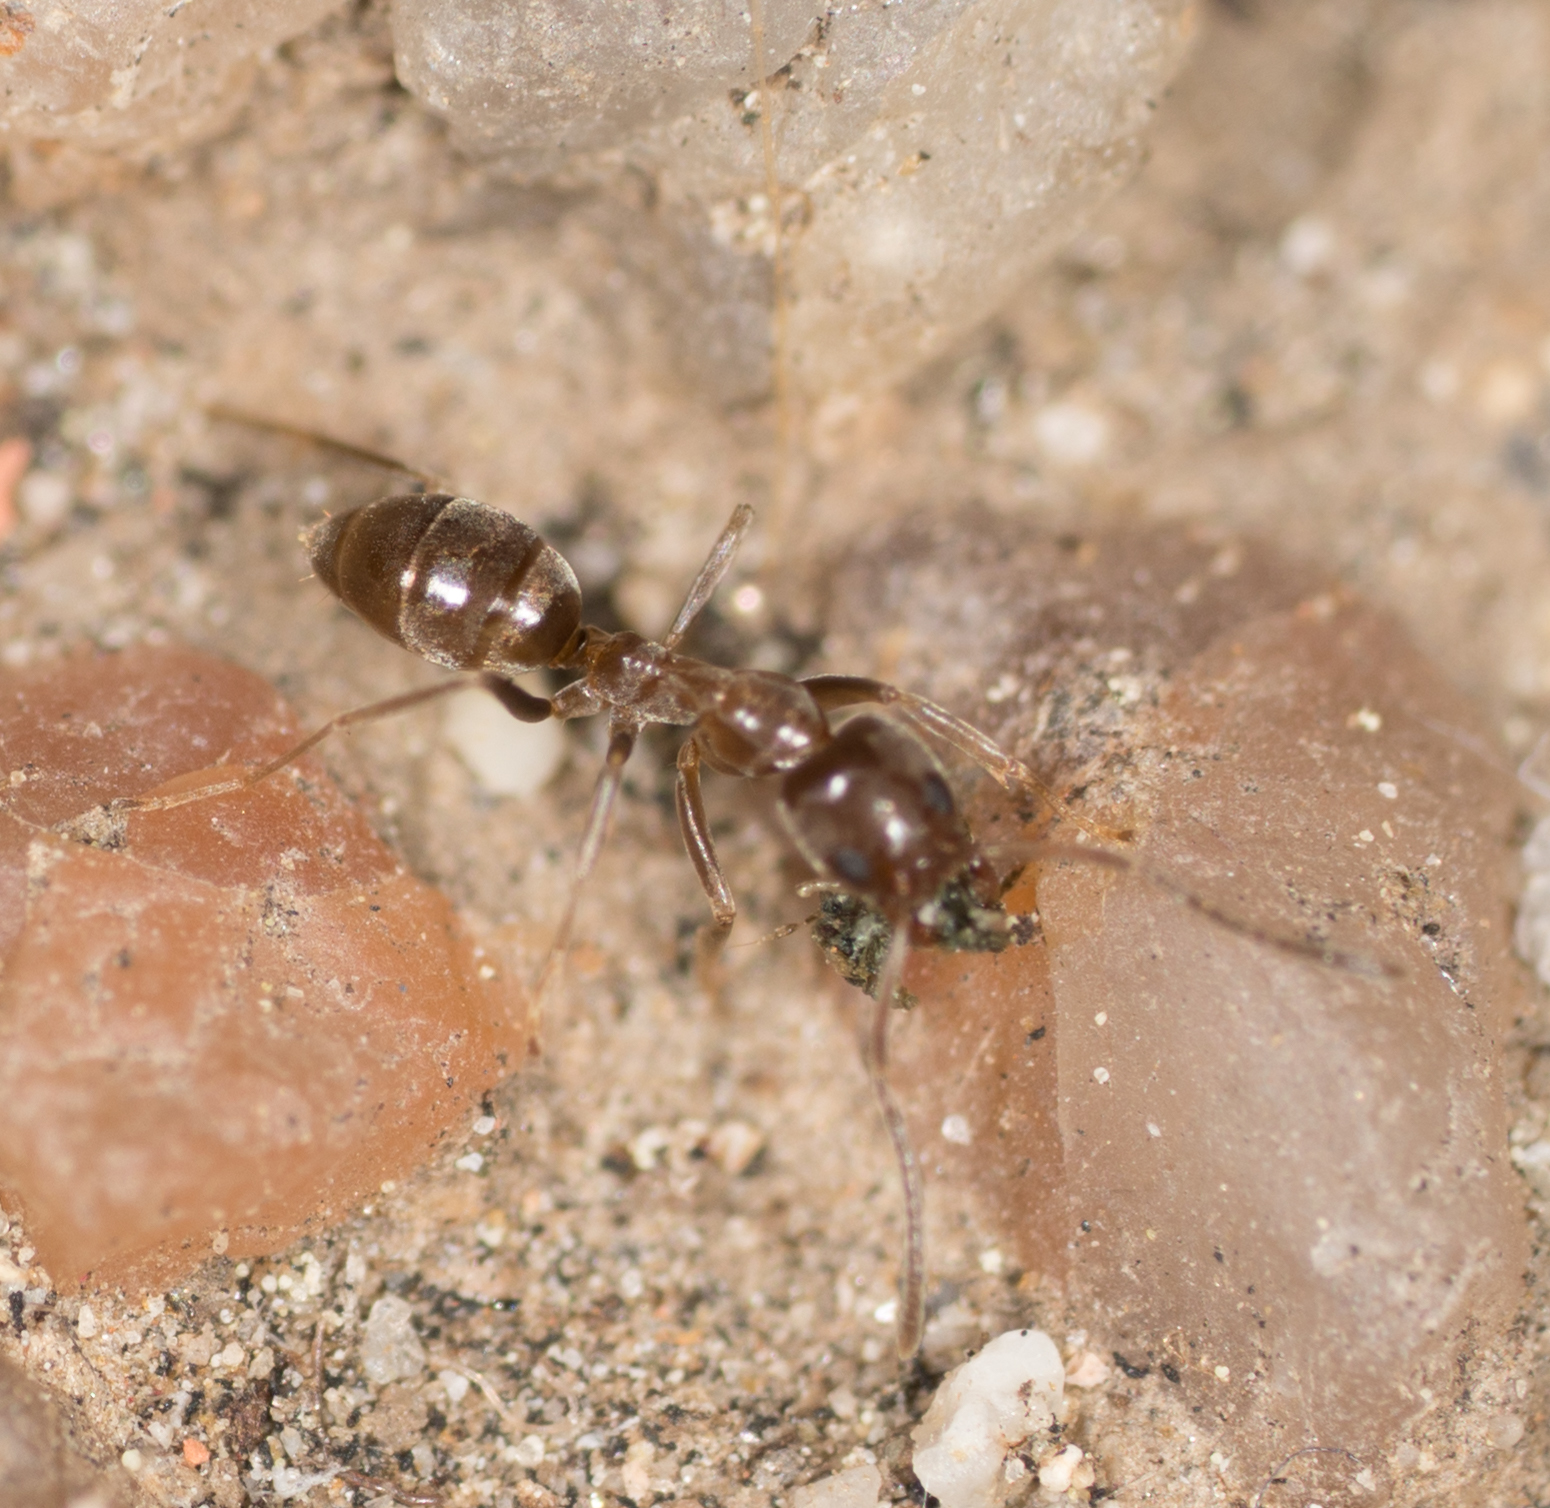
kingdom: Animalia
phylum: Arthropoda
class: Insecta
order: Hymenoptera
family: Formicidae
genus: Linepithema
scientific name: Linepithema humile
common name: Argentine ant
